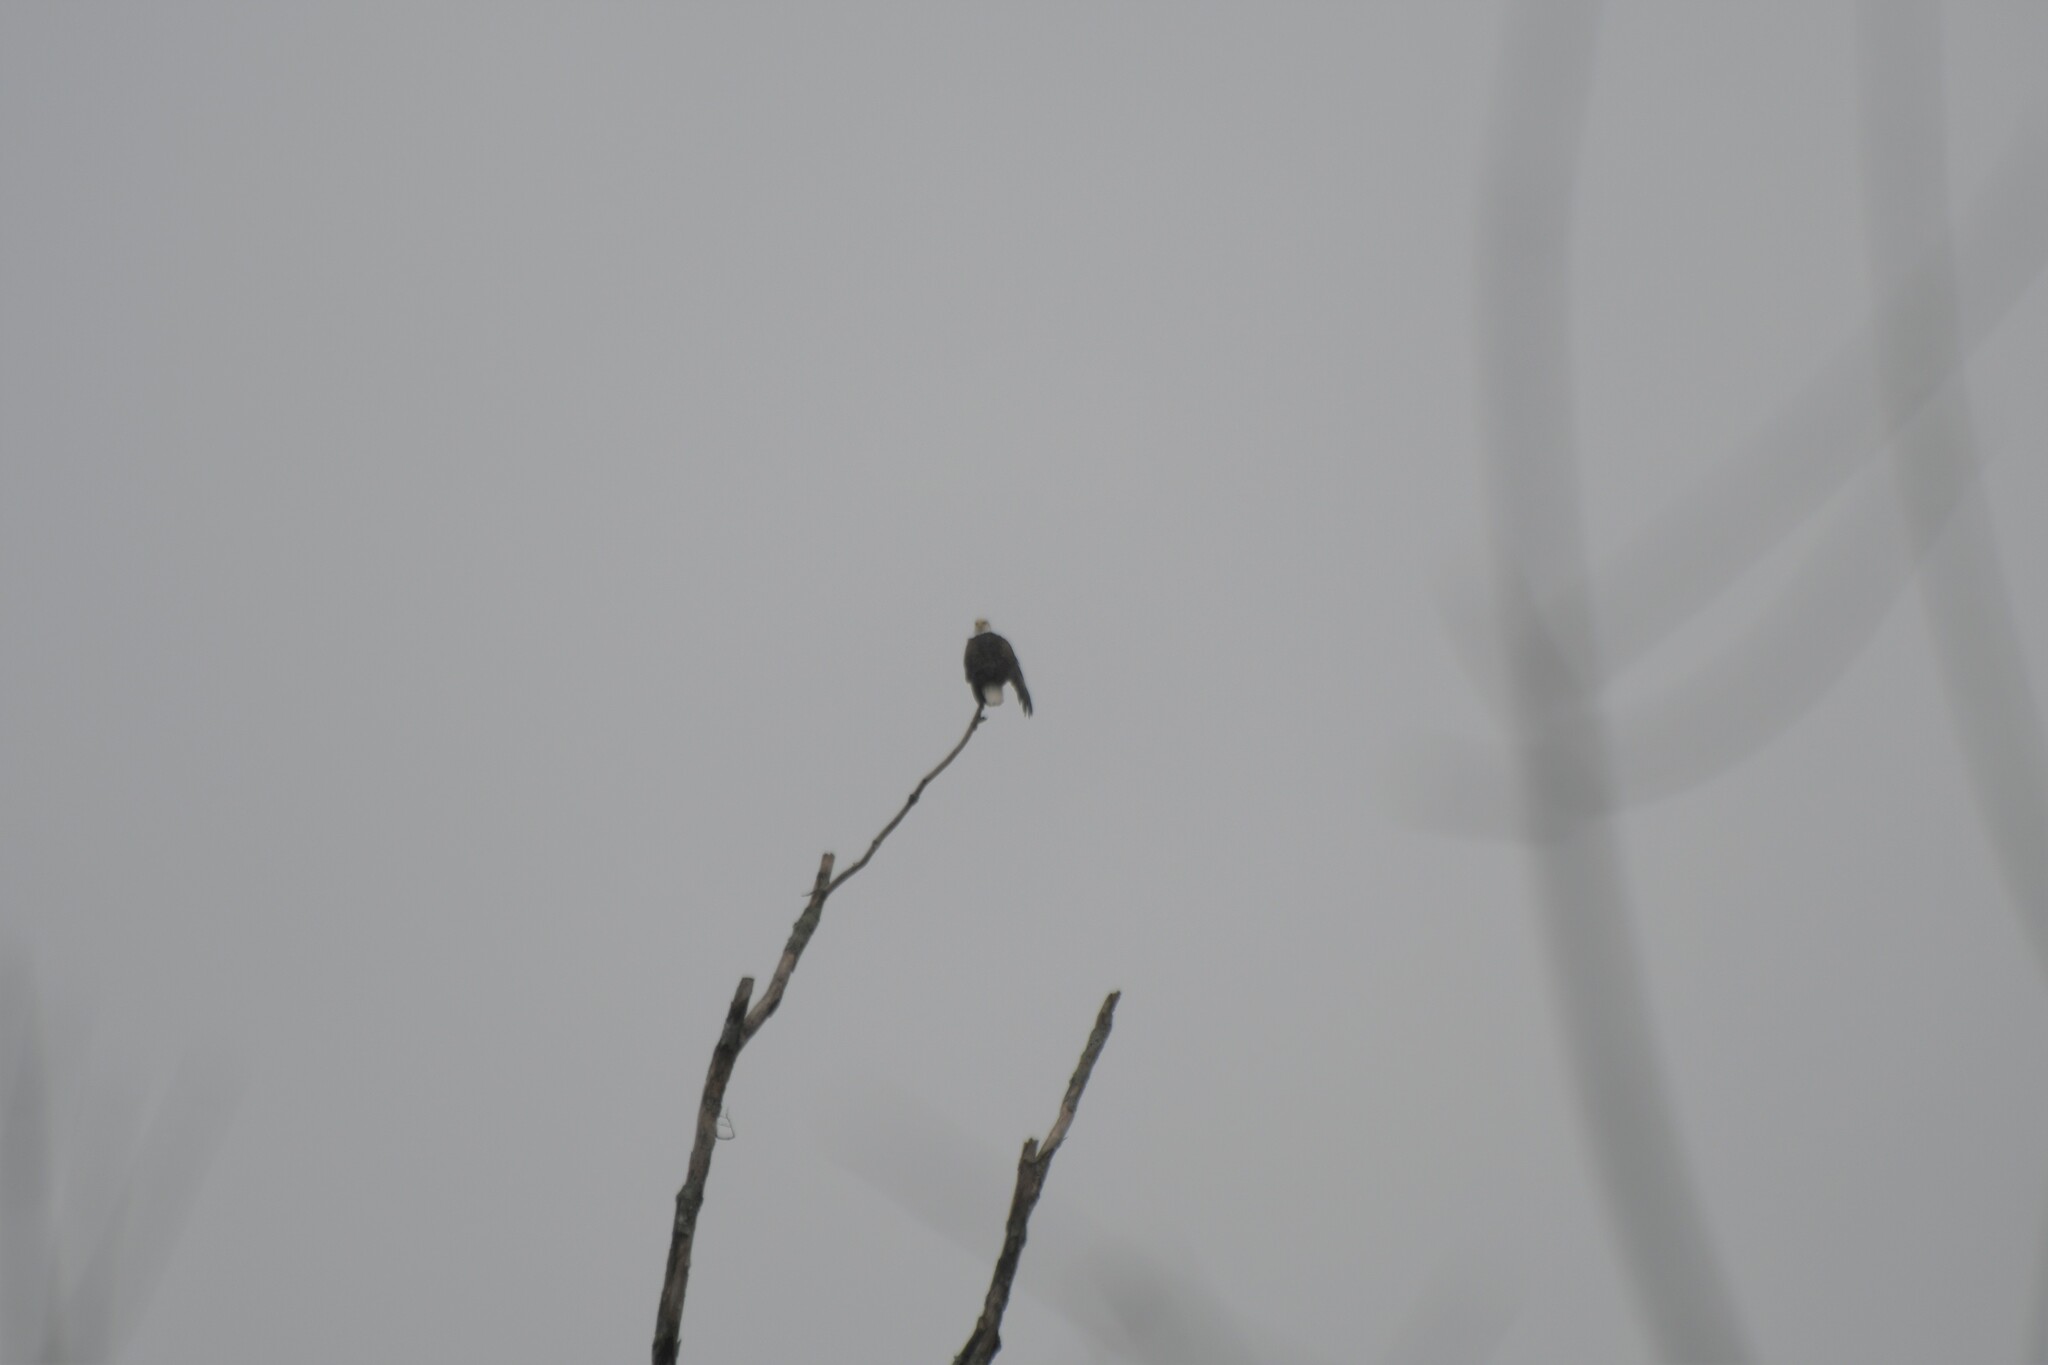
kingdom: Animalia
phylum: Chordata
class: Aves
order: Accipitriformes
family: Accipitridae
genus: Haliaeetus
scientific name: Haliaeetus leucocephalus
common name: Bald eagle
